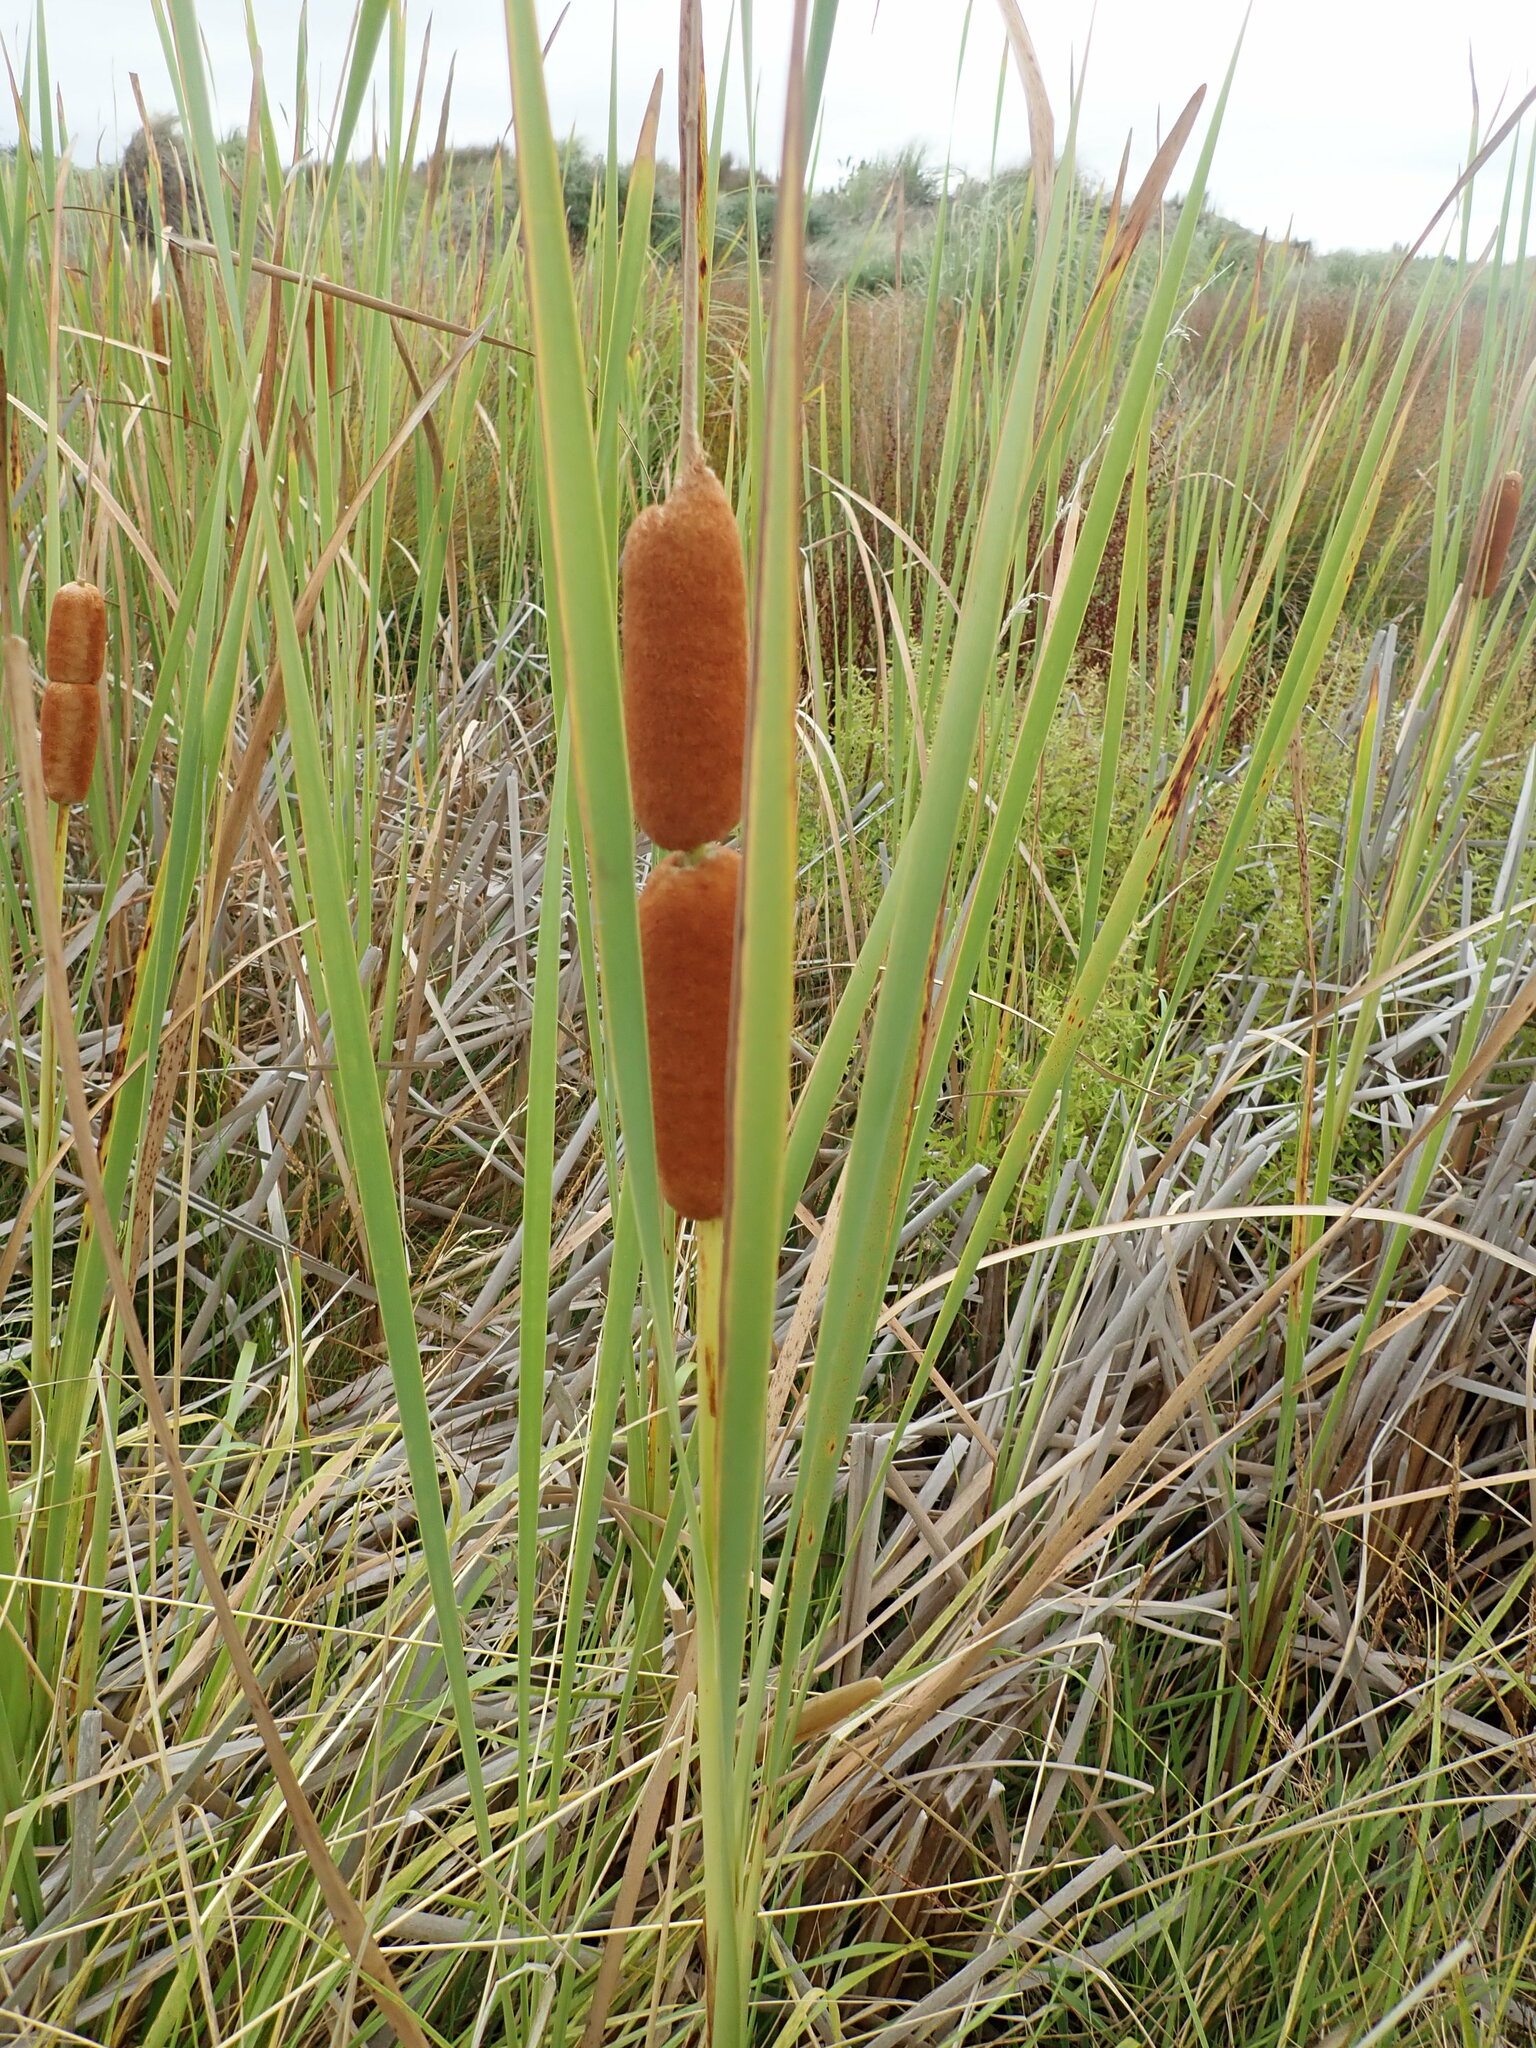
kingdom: Plantae
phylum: Tracheophyta
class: Liliopsida
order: Poales
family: Typhaceae
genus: Typha
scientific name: Typha orientalis
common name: Bullrush
